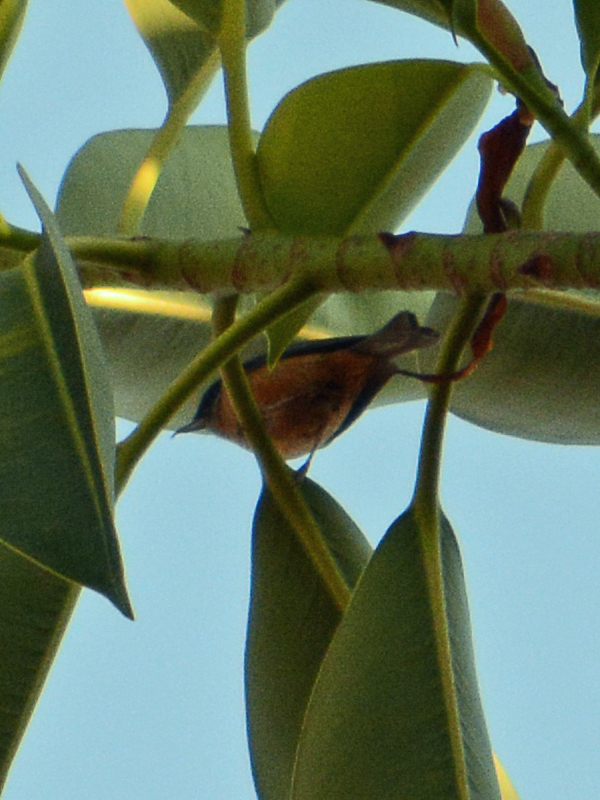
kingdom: Animalia
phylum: Chordata
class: Aves
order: Passeriformes
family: Thraupidae
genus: Diglossa
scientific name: Diglossa baritula
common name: Cinnamon-bellied flowerpiercer
